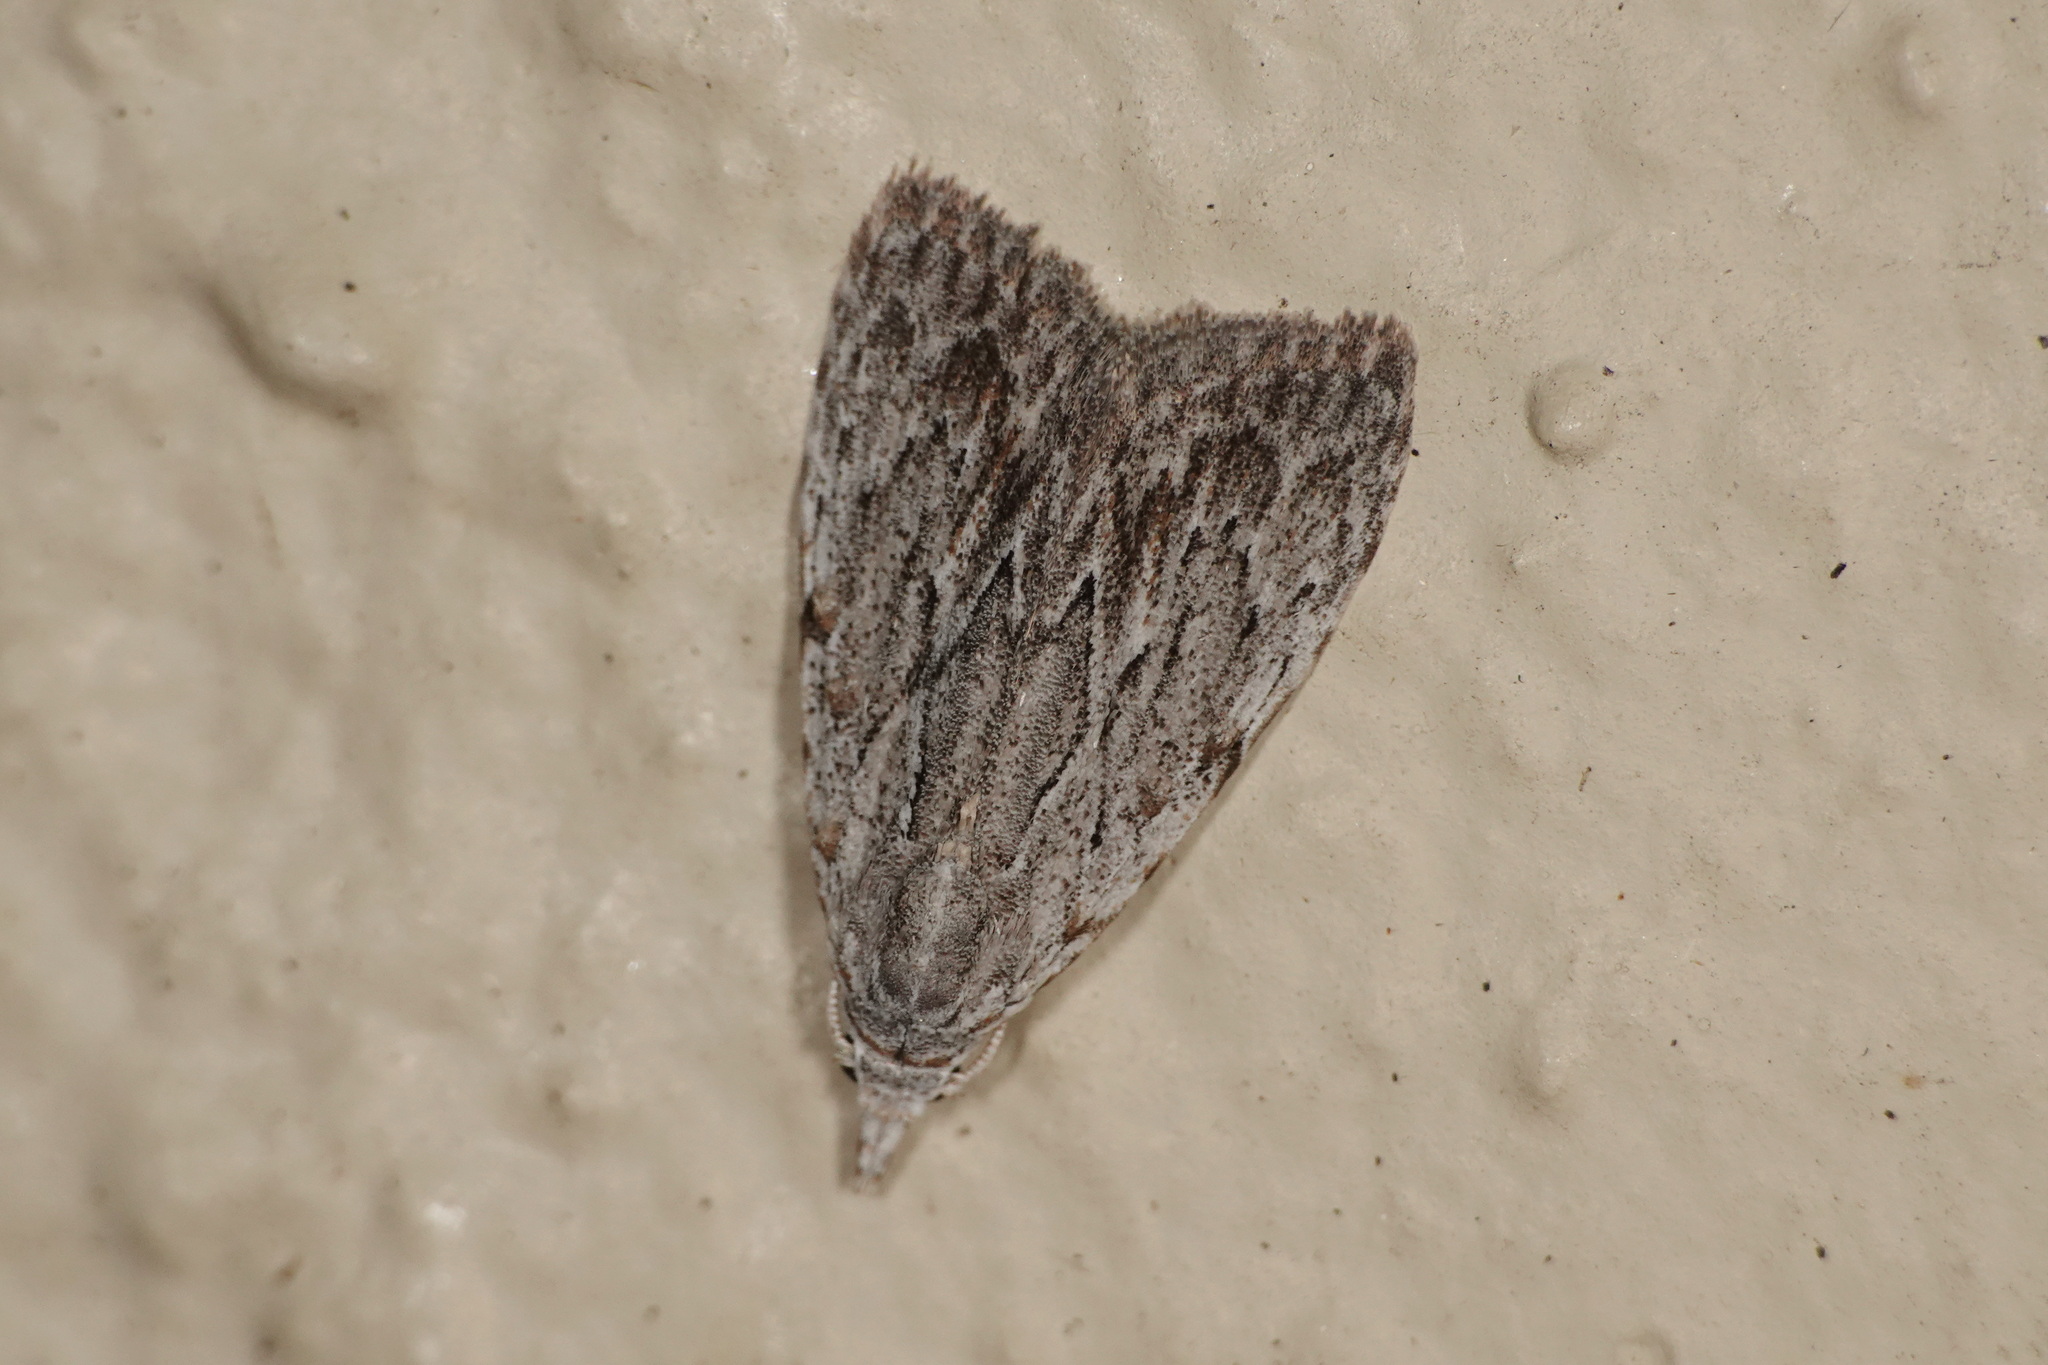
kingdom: Animalia
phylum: Arthropoda
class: Insecta
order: Lepidoptera
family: Nolidae
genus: Nola
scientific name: Nola crucigera
